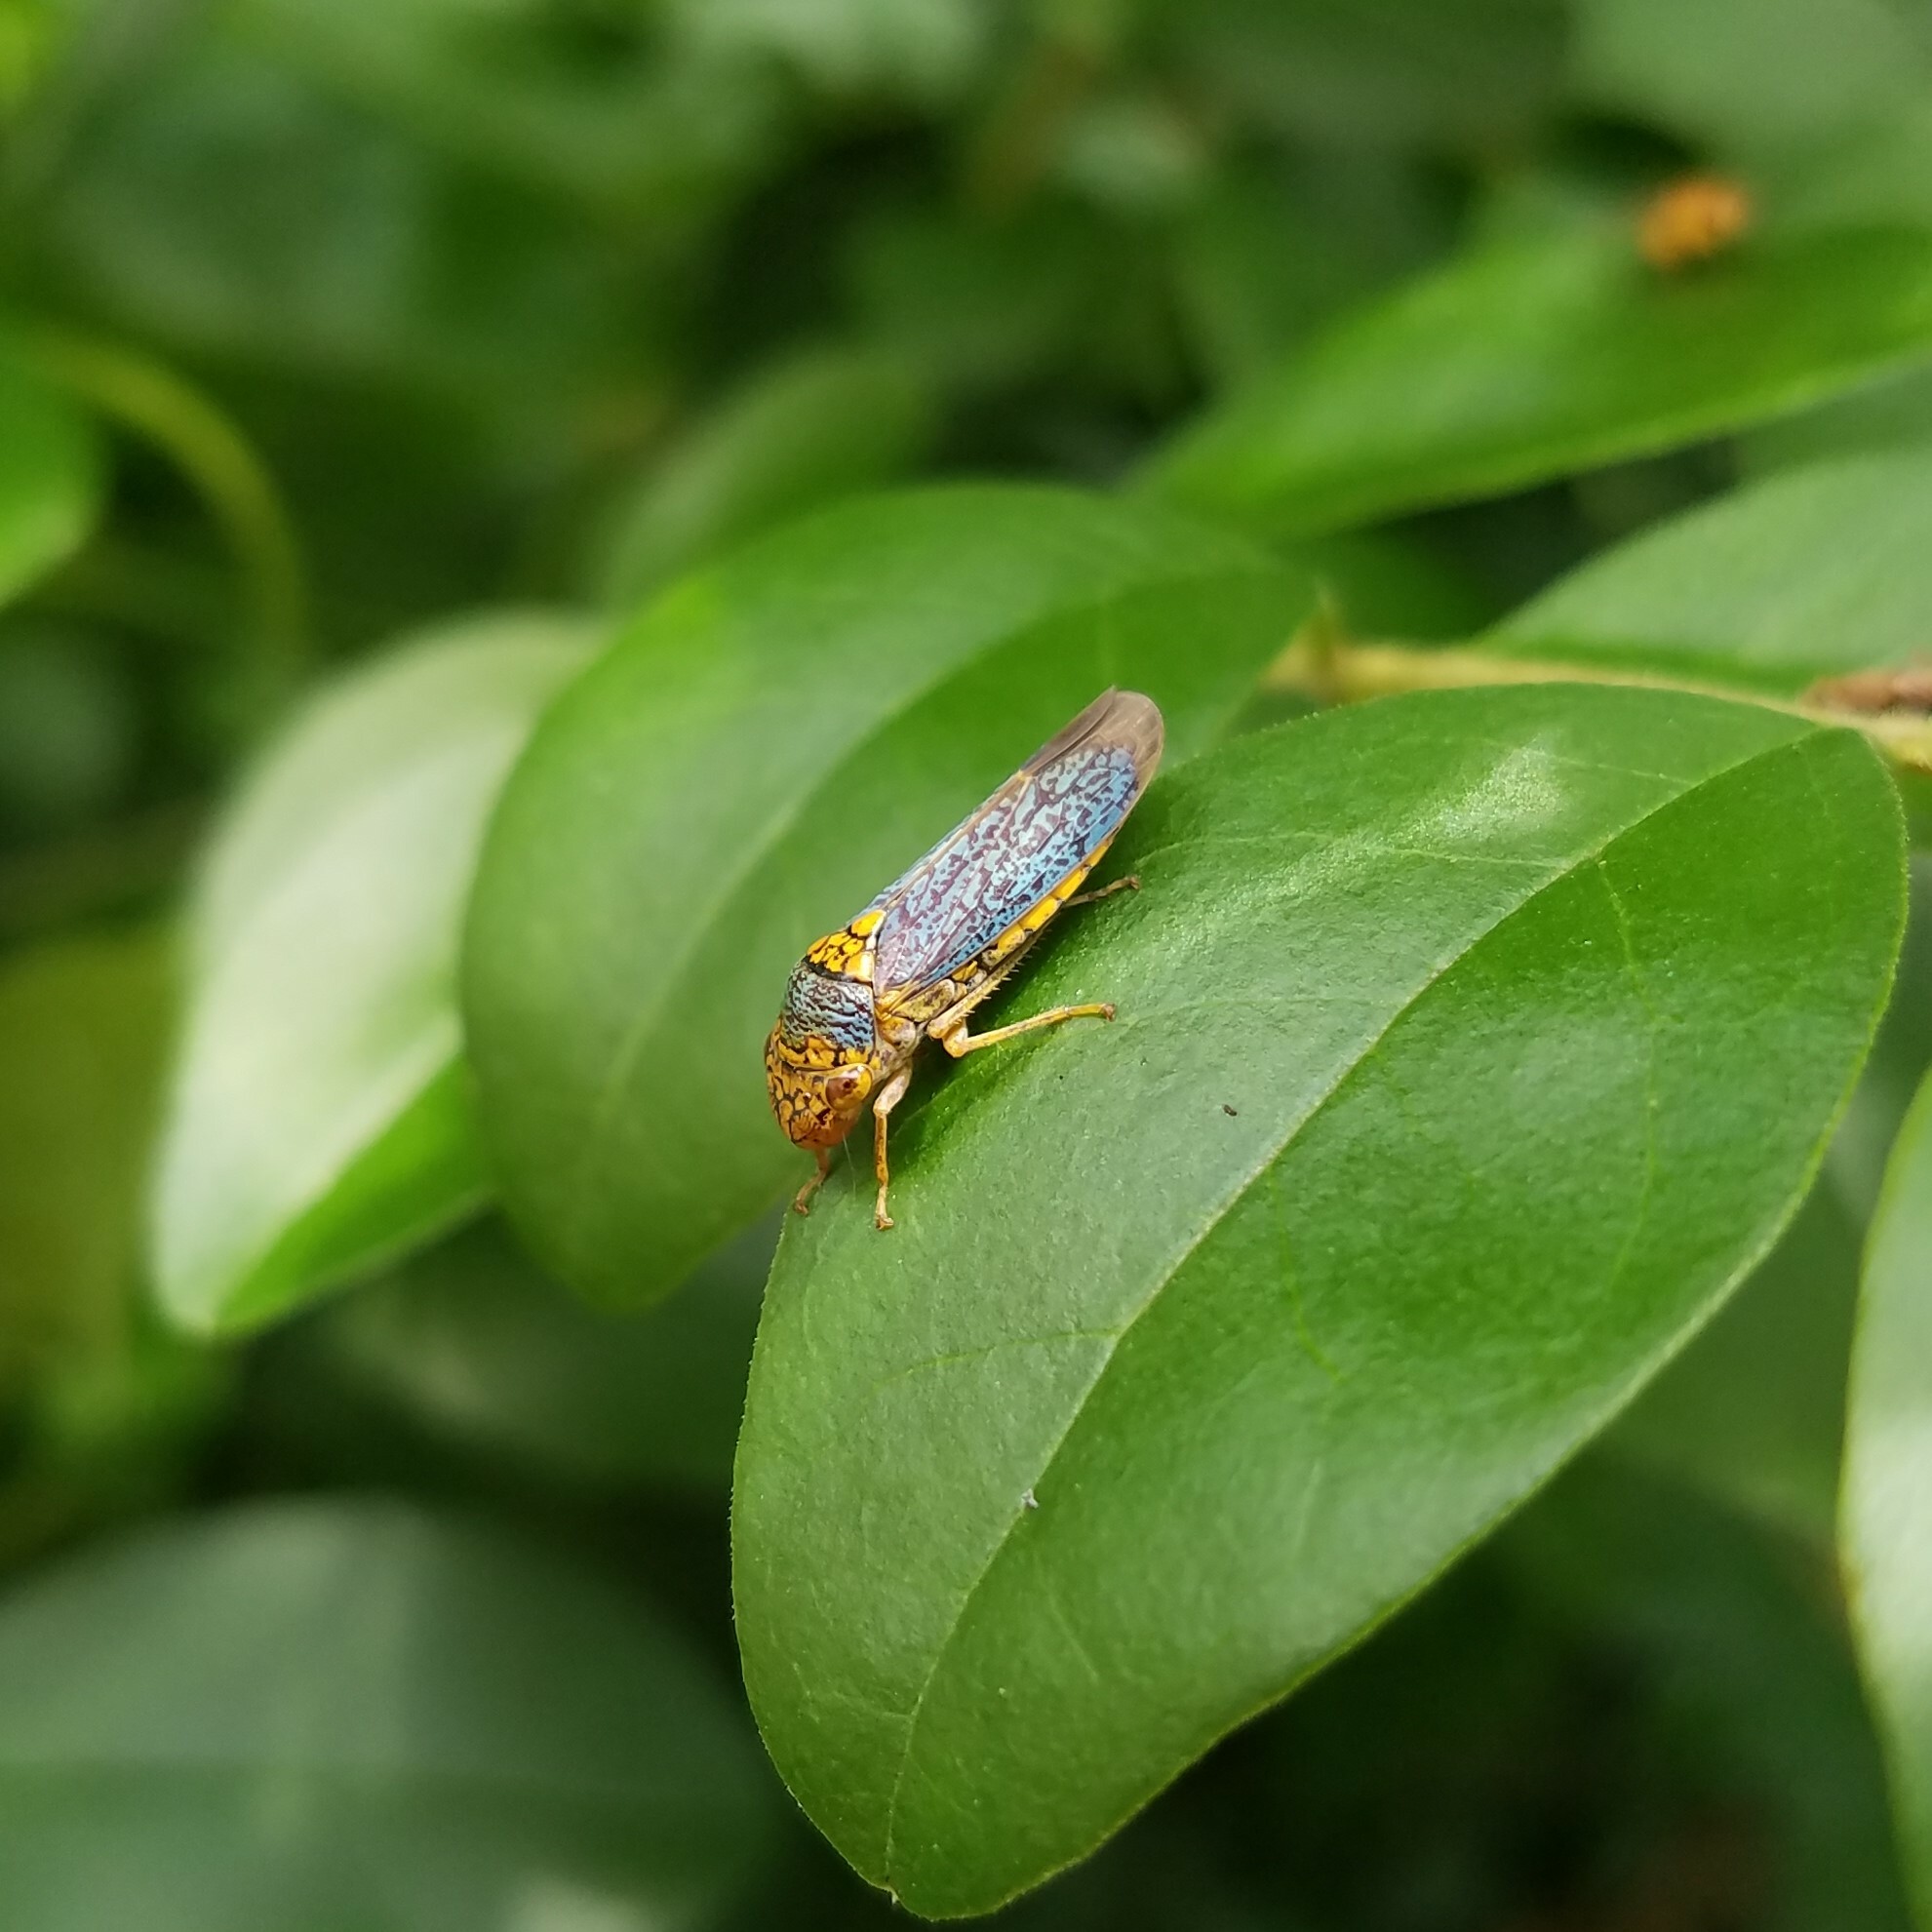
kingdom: Animalia
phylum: Arthropoda
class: Insecta
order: Hemiptera
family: Cicadellidae
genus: Oncometopia
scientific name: Oncometopia orbona
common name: Broad-headed sharpshooter
